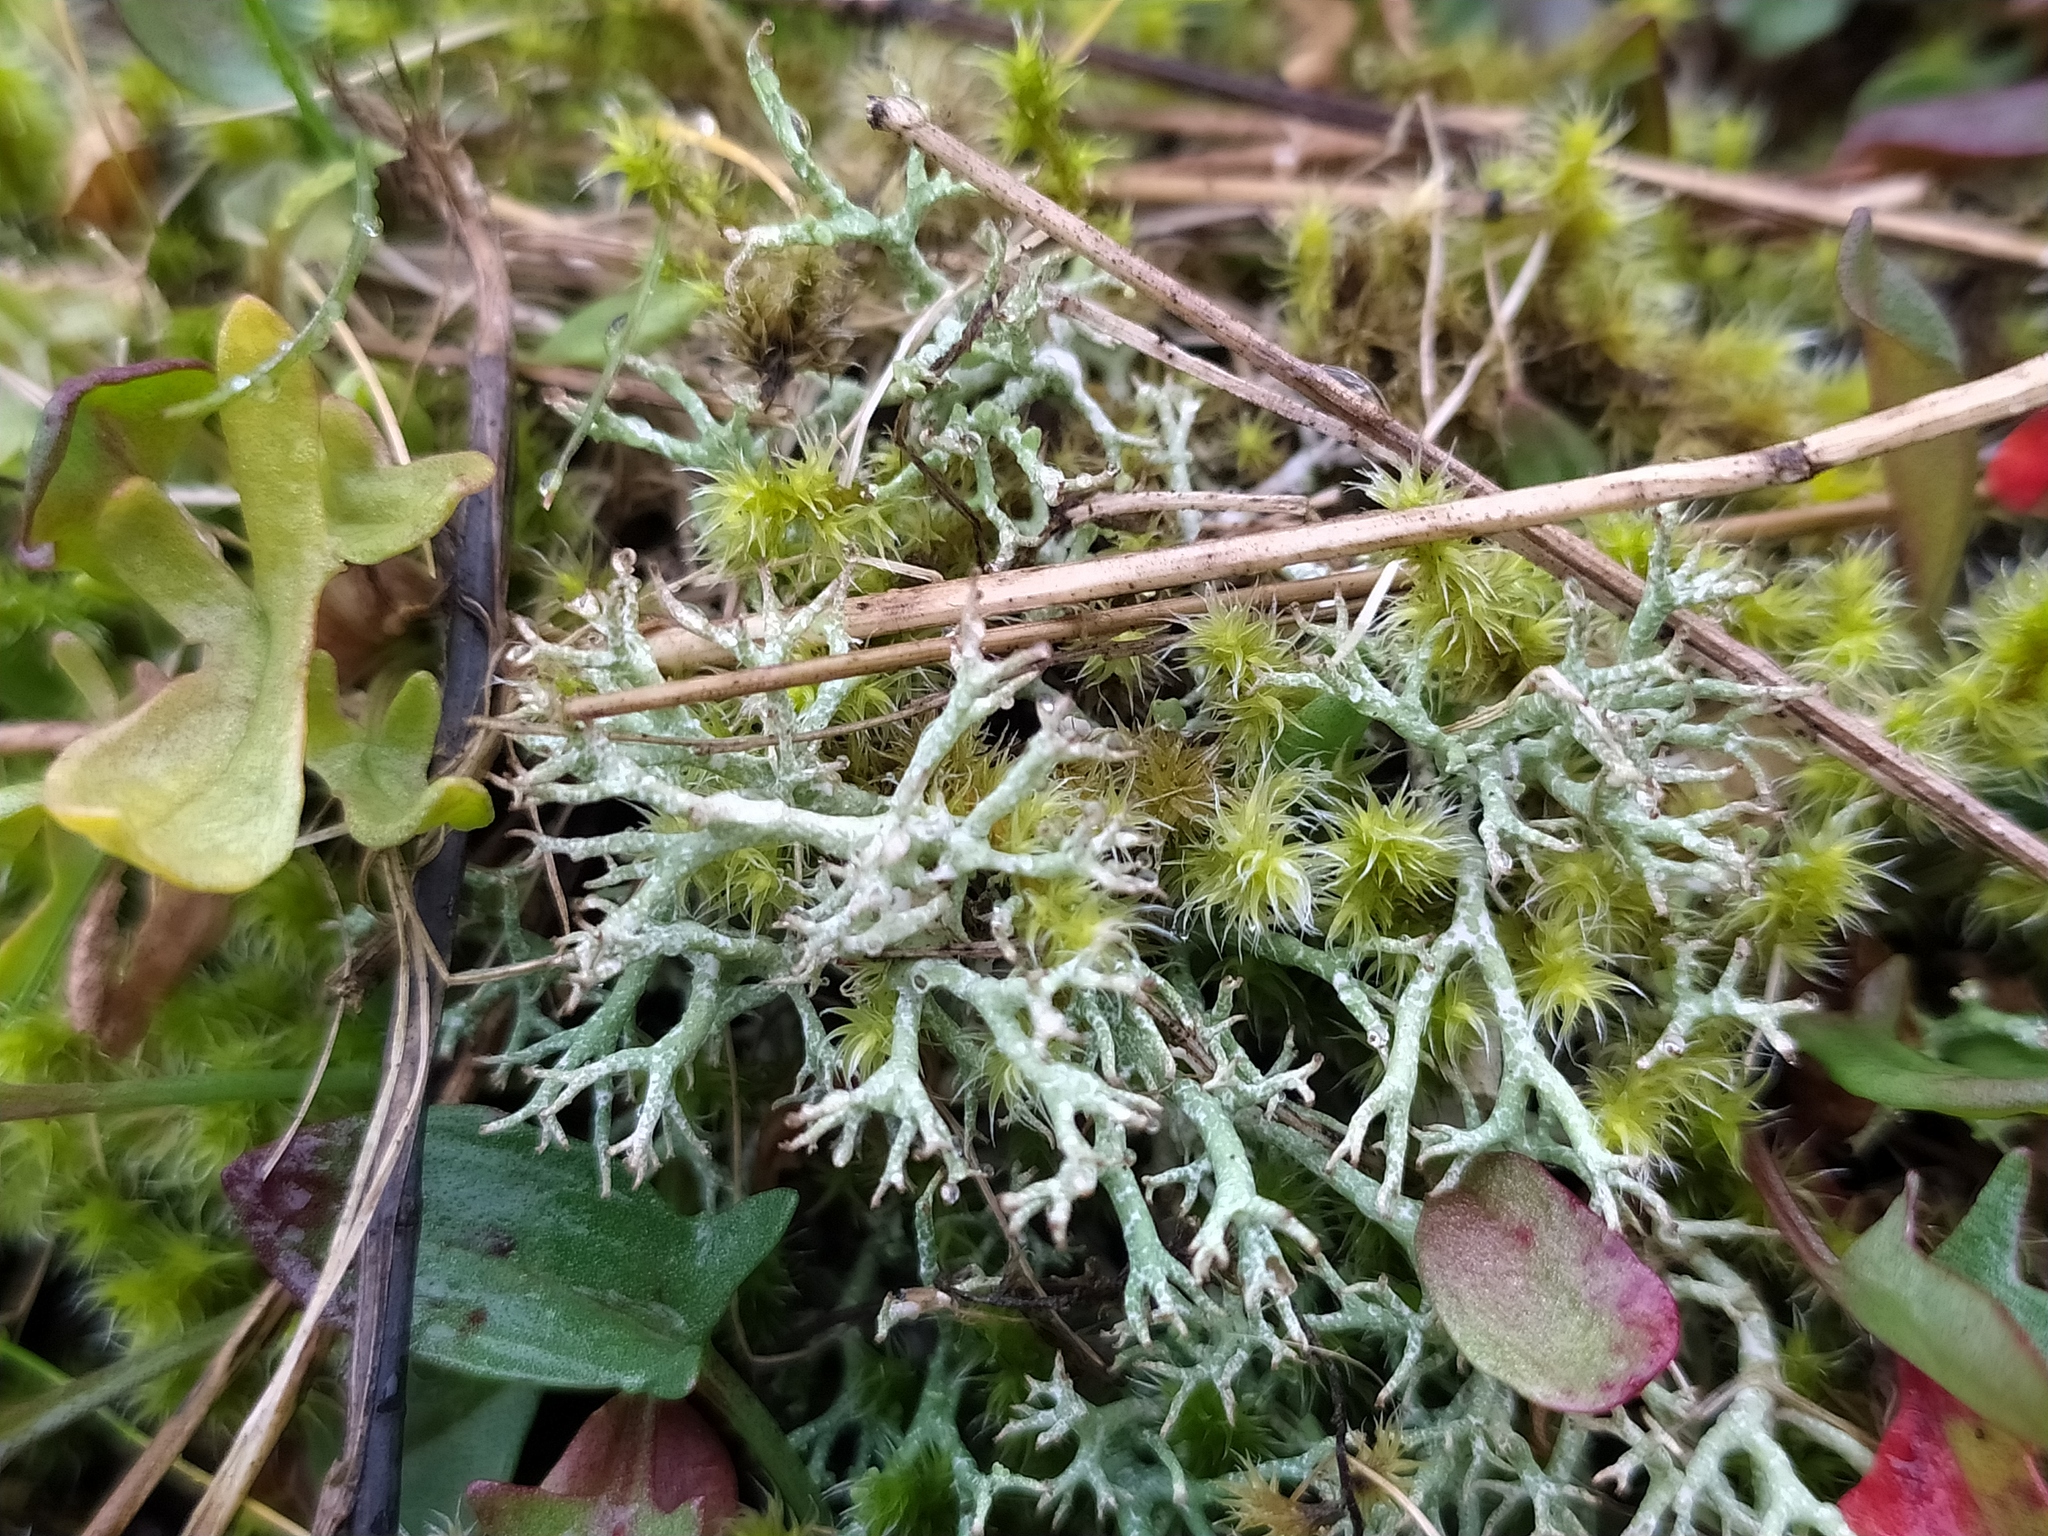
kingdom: Fungi
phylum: Ascomycota
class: Lecanoromycetes
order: Lecanorales
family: Cladoniaceae
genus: Cladonia
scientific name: Cladonia rangiformis
